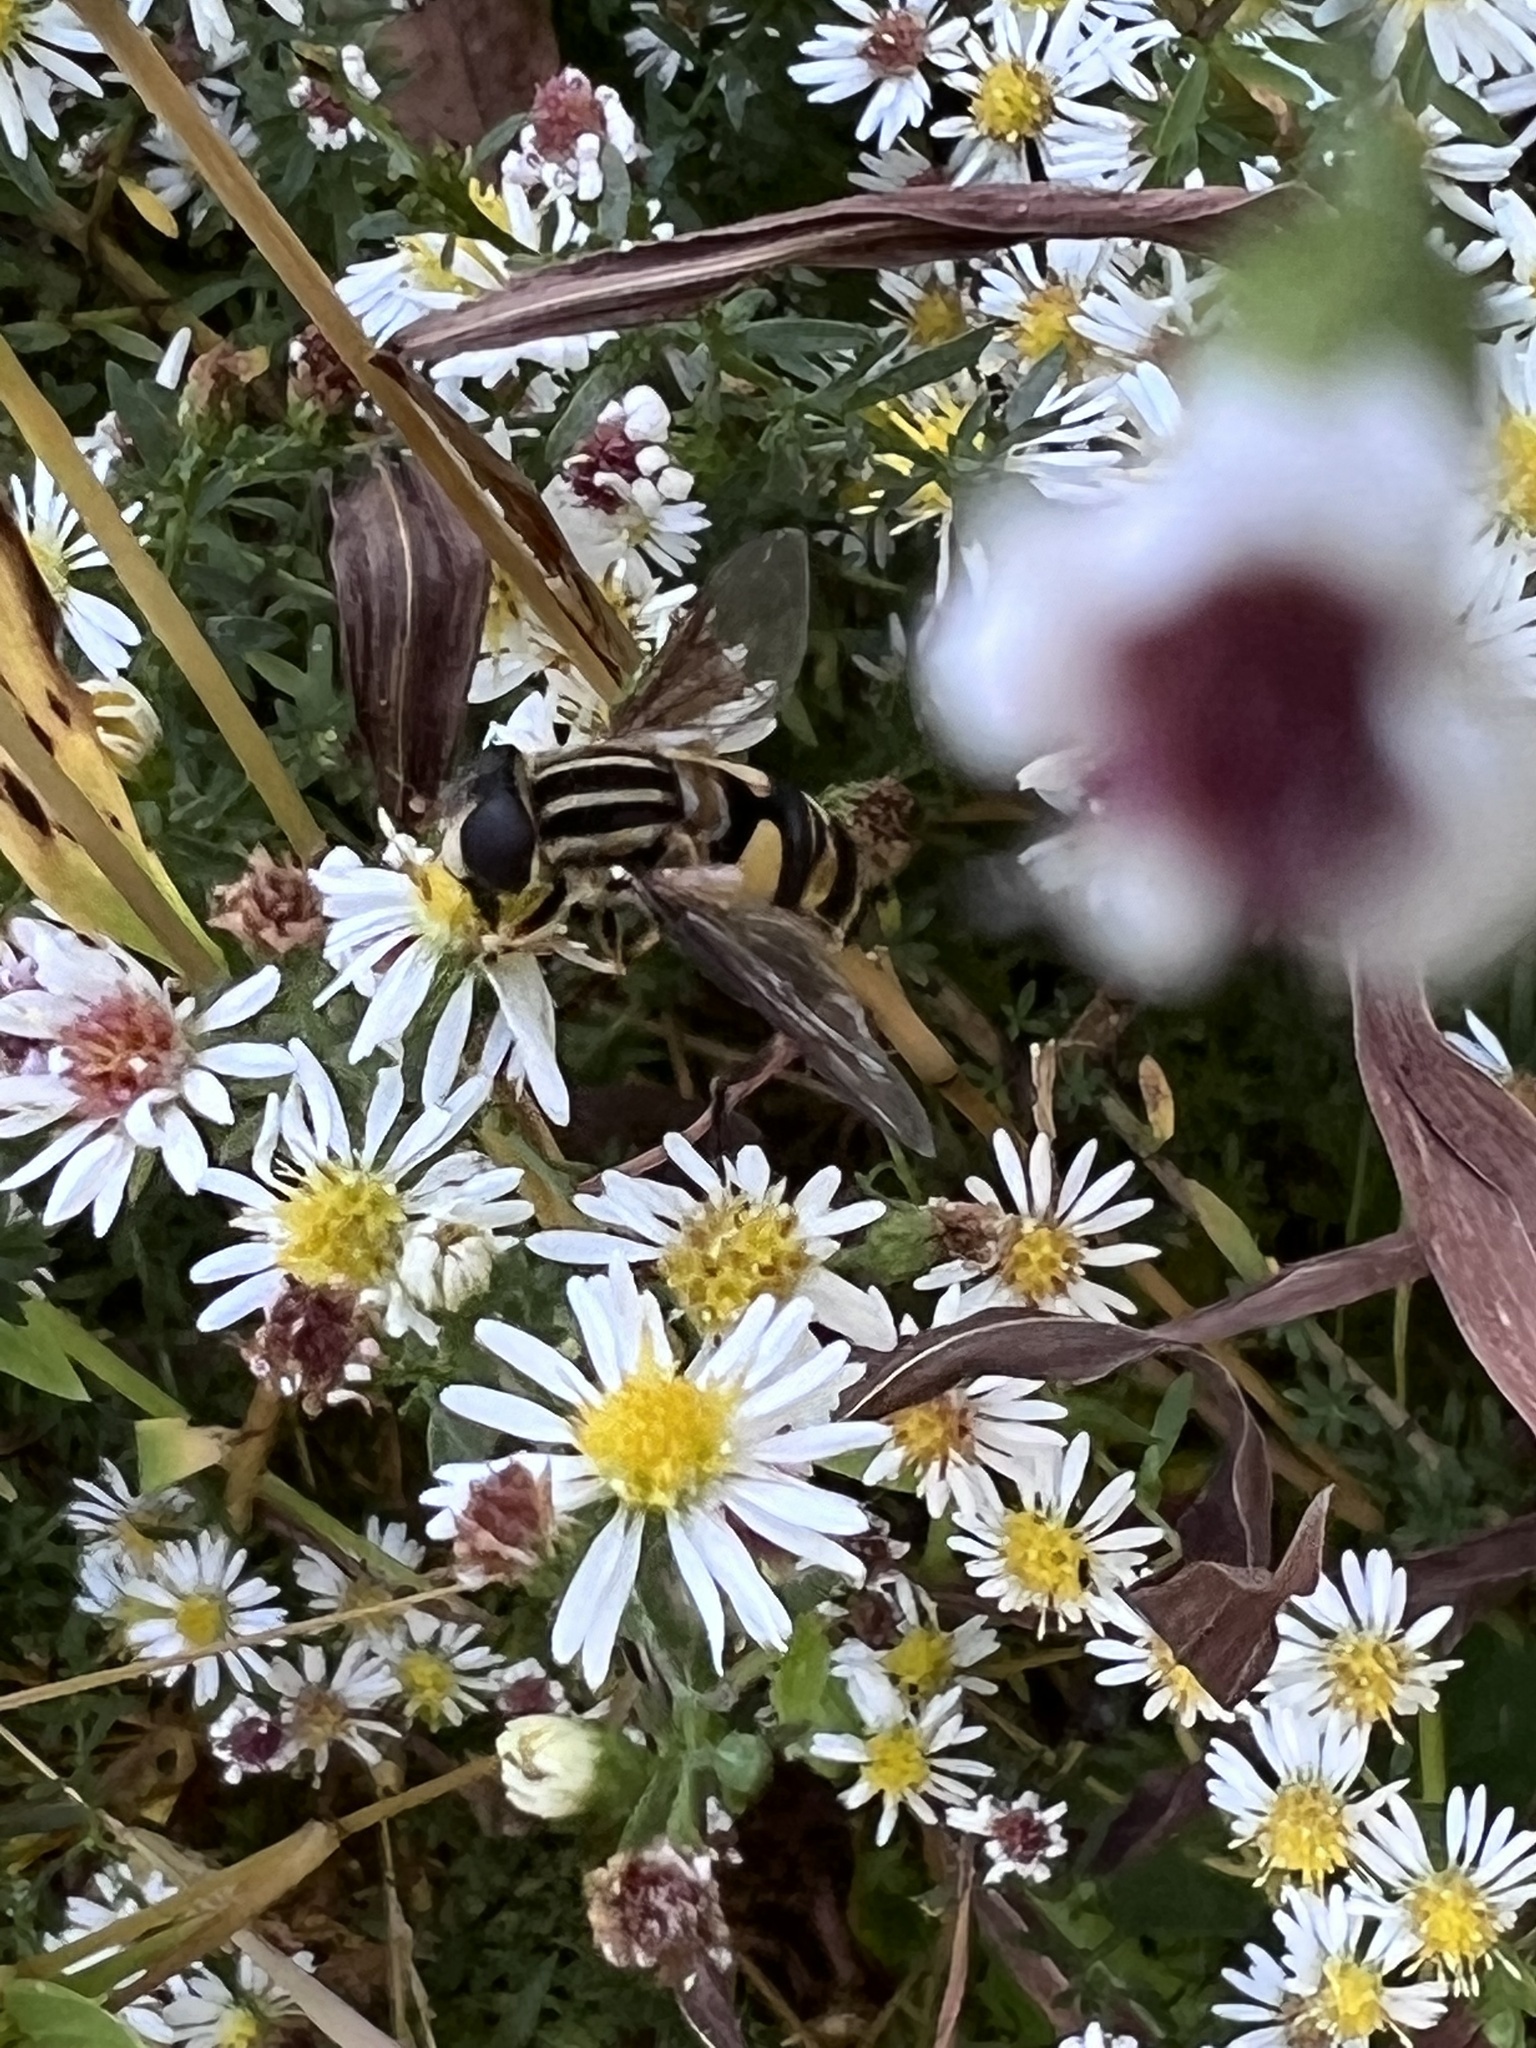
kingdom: Animalia
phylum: Arthropoda
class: Insecta
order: Diptera
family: Syrphidae
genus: Helophilus
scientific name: Helophilus fasciatus
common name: Narrow-headed marsh fly
